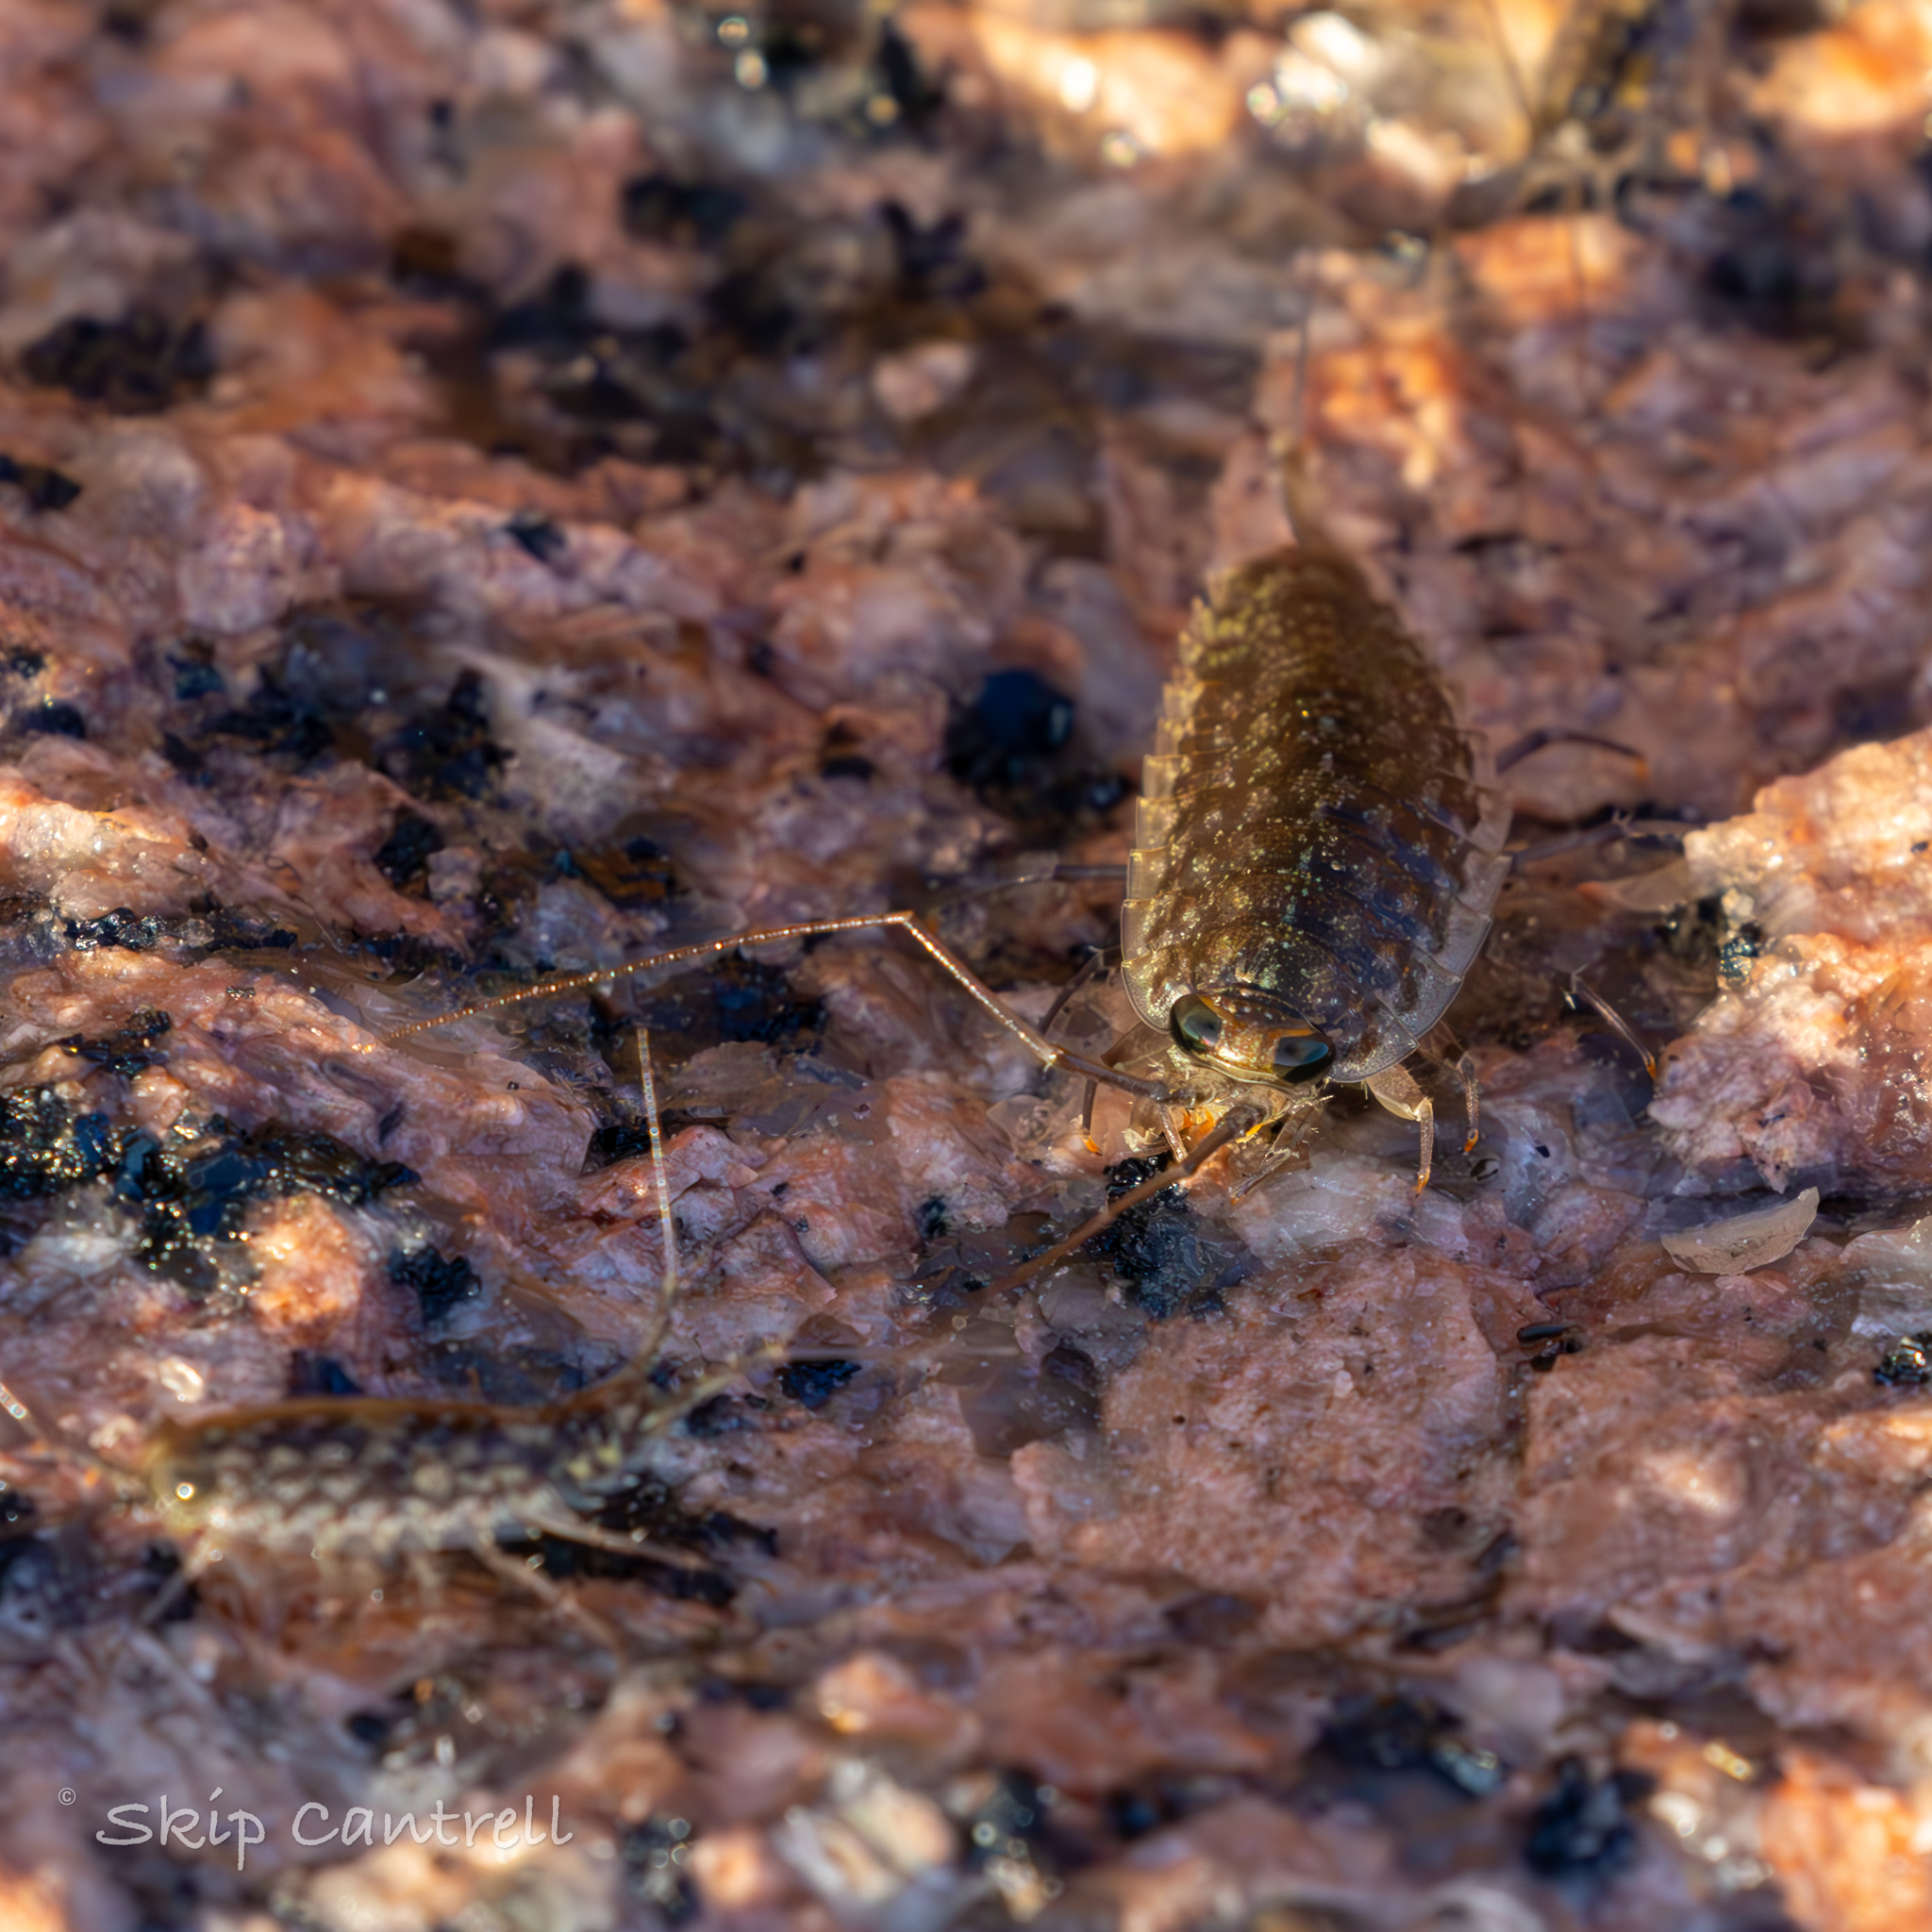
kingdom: Animalia
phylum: Arthropoda
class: Malacostraca
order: Isopoda
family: Ligiidae
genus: Ligia
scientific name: Ligia exotica
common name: Wharf roach
